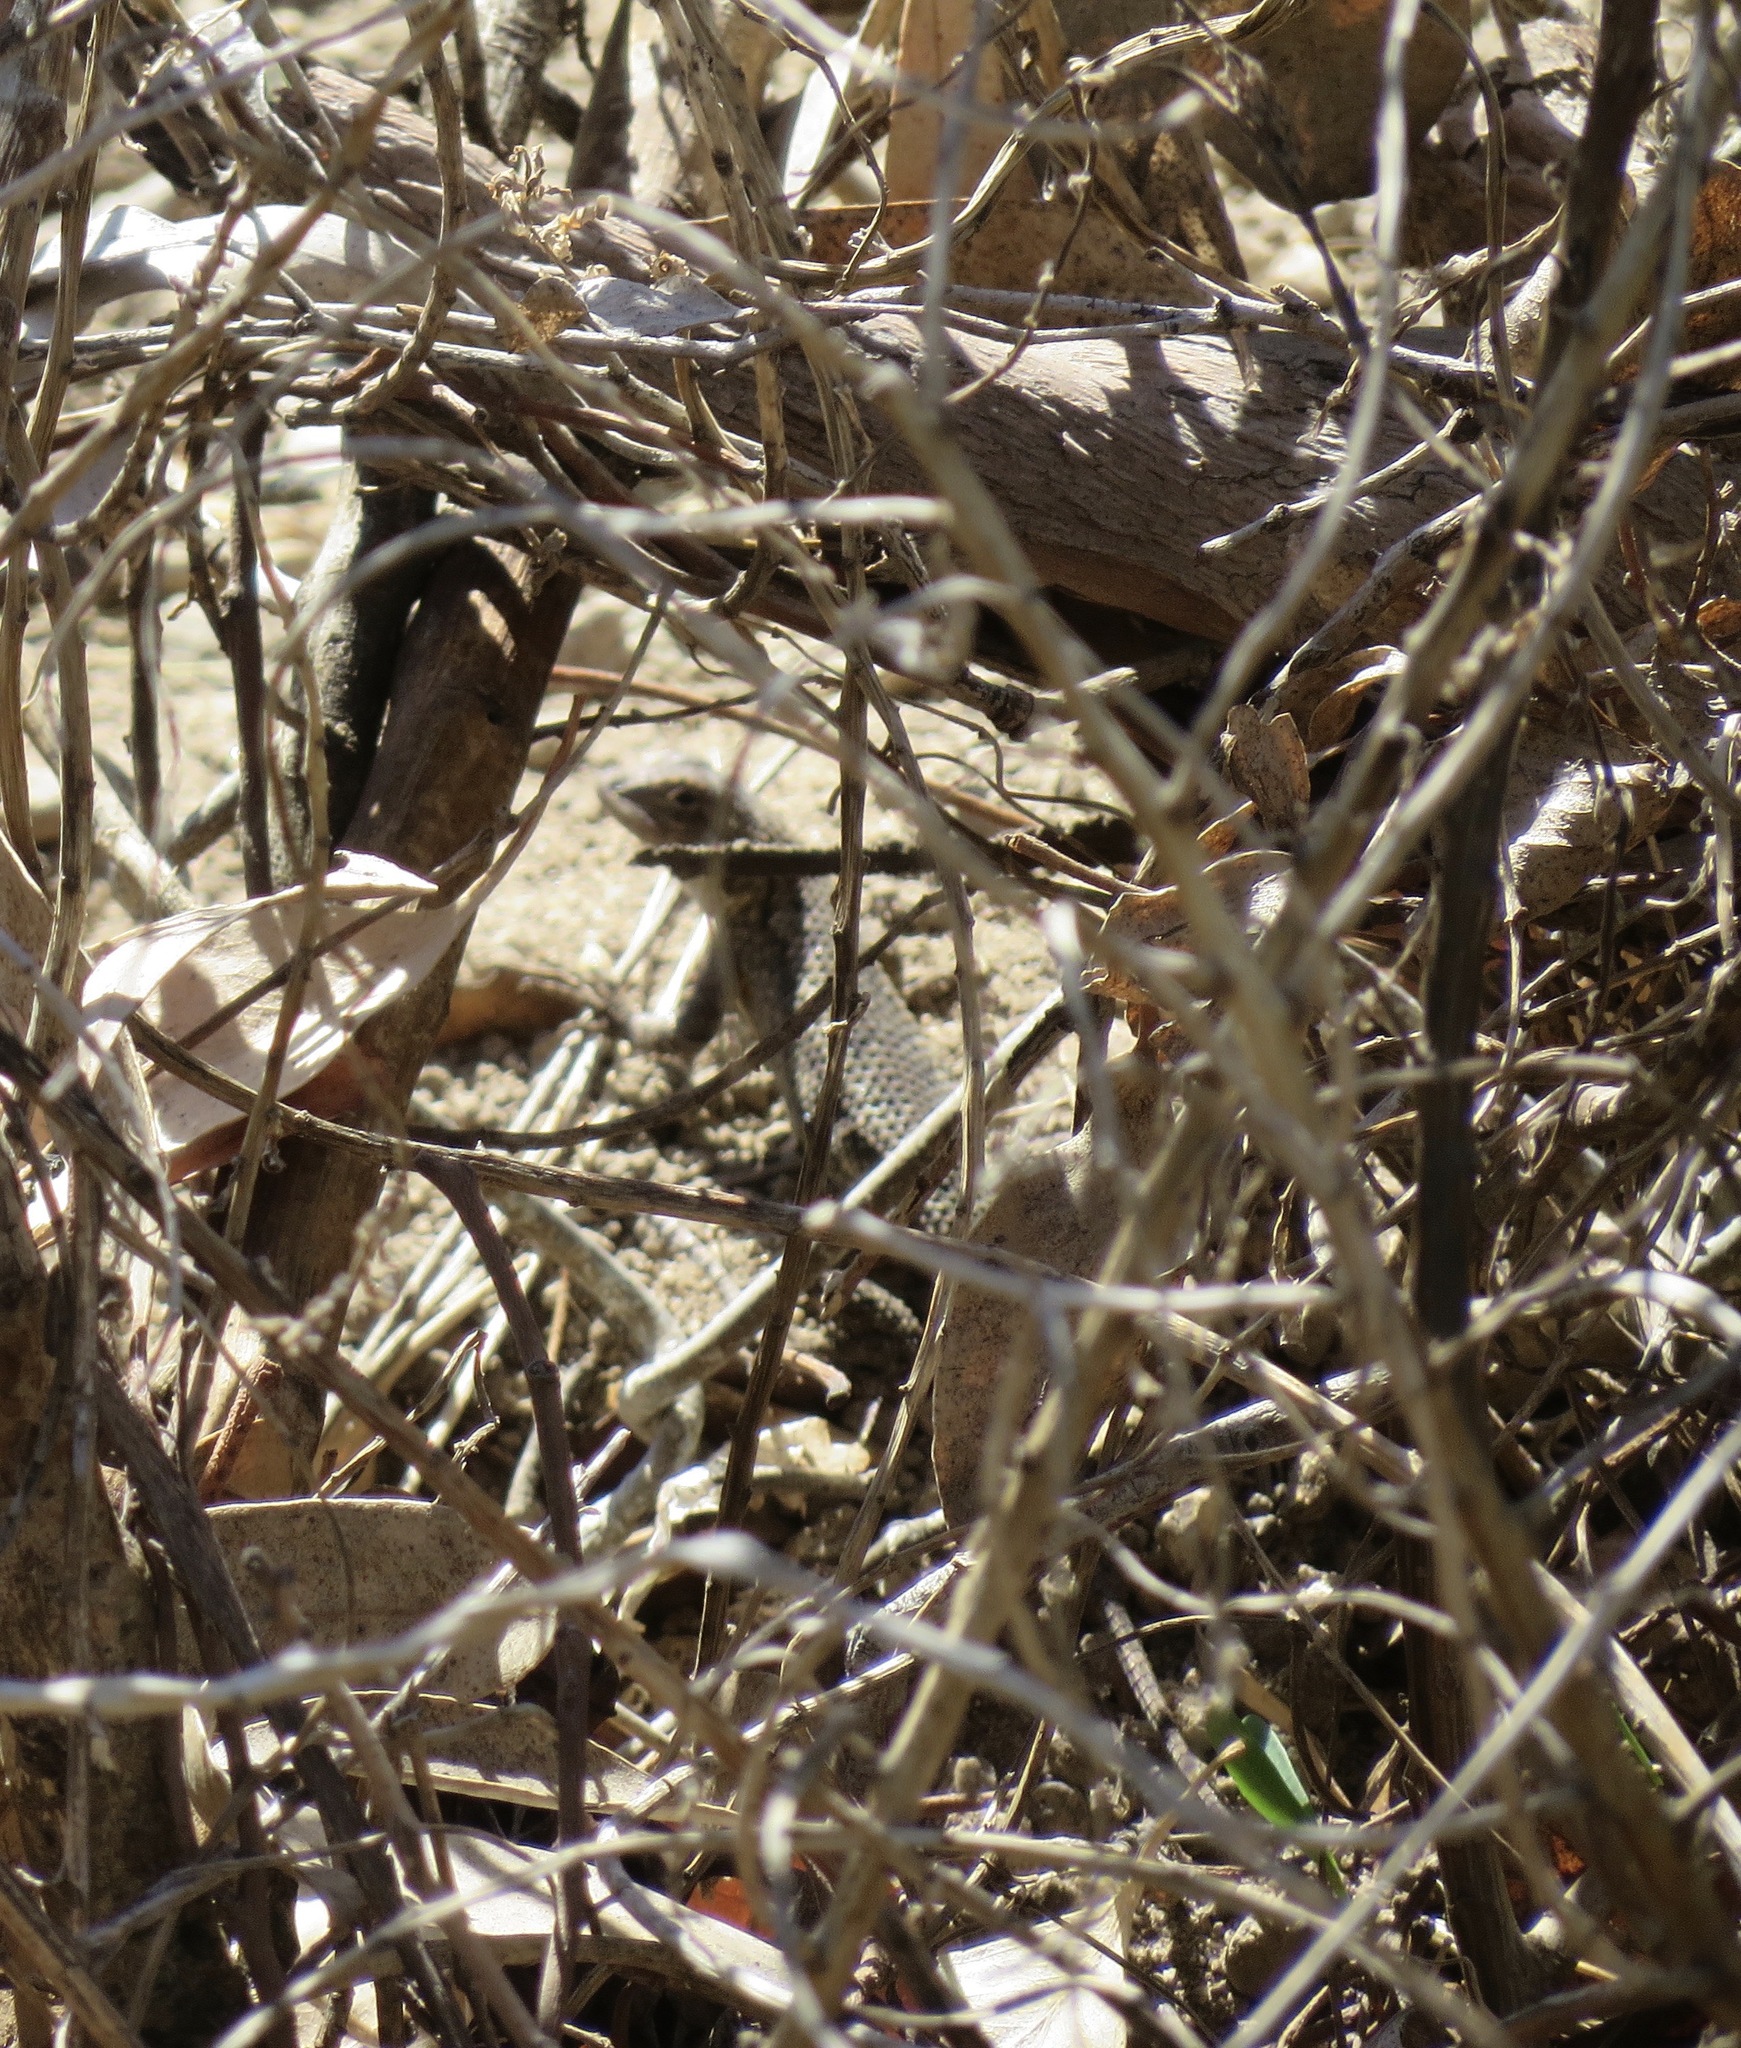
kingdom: Animalia
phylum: Chordata
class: Squamata
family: Phrynosomatidae
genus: Sceloporus
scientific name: Sceloporus occidentalis
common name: Western fence lizard
